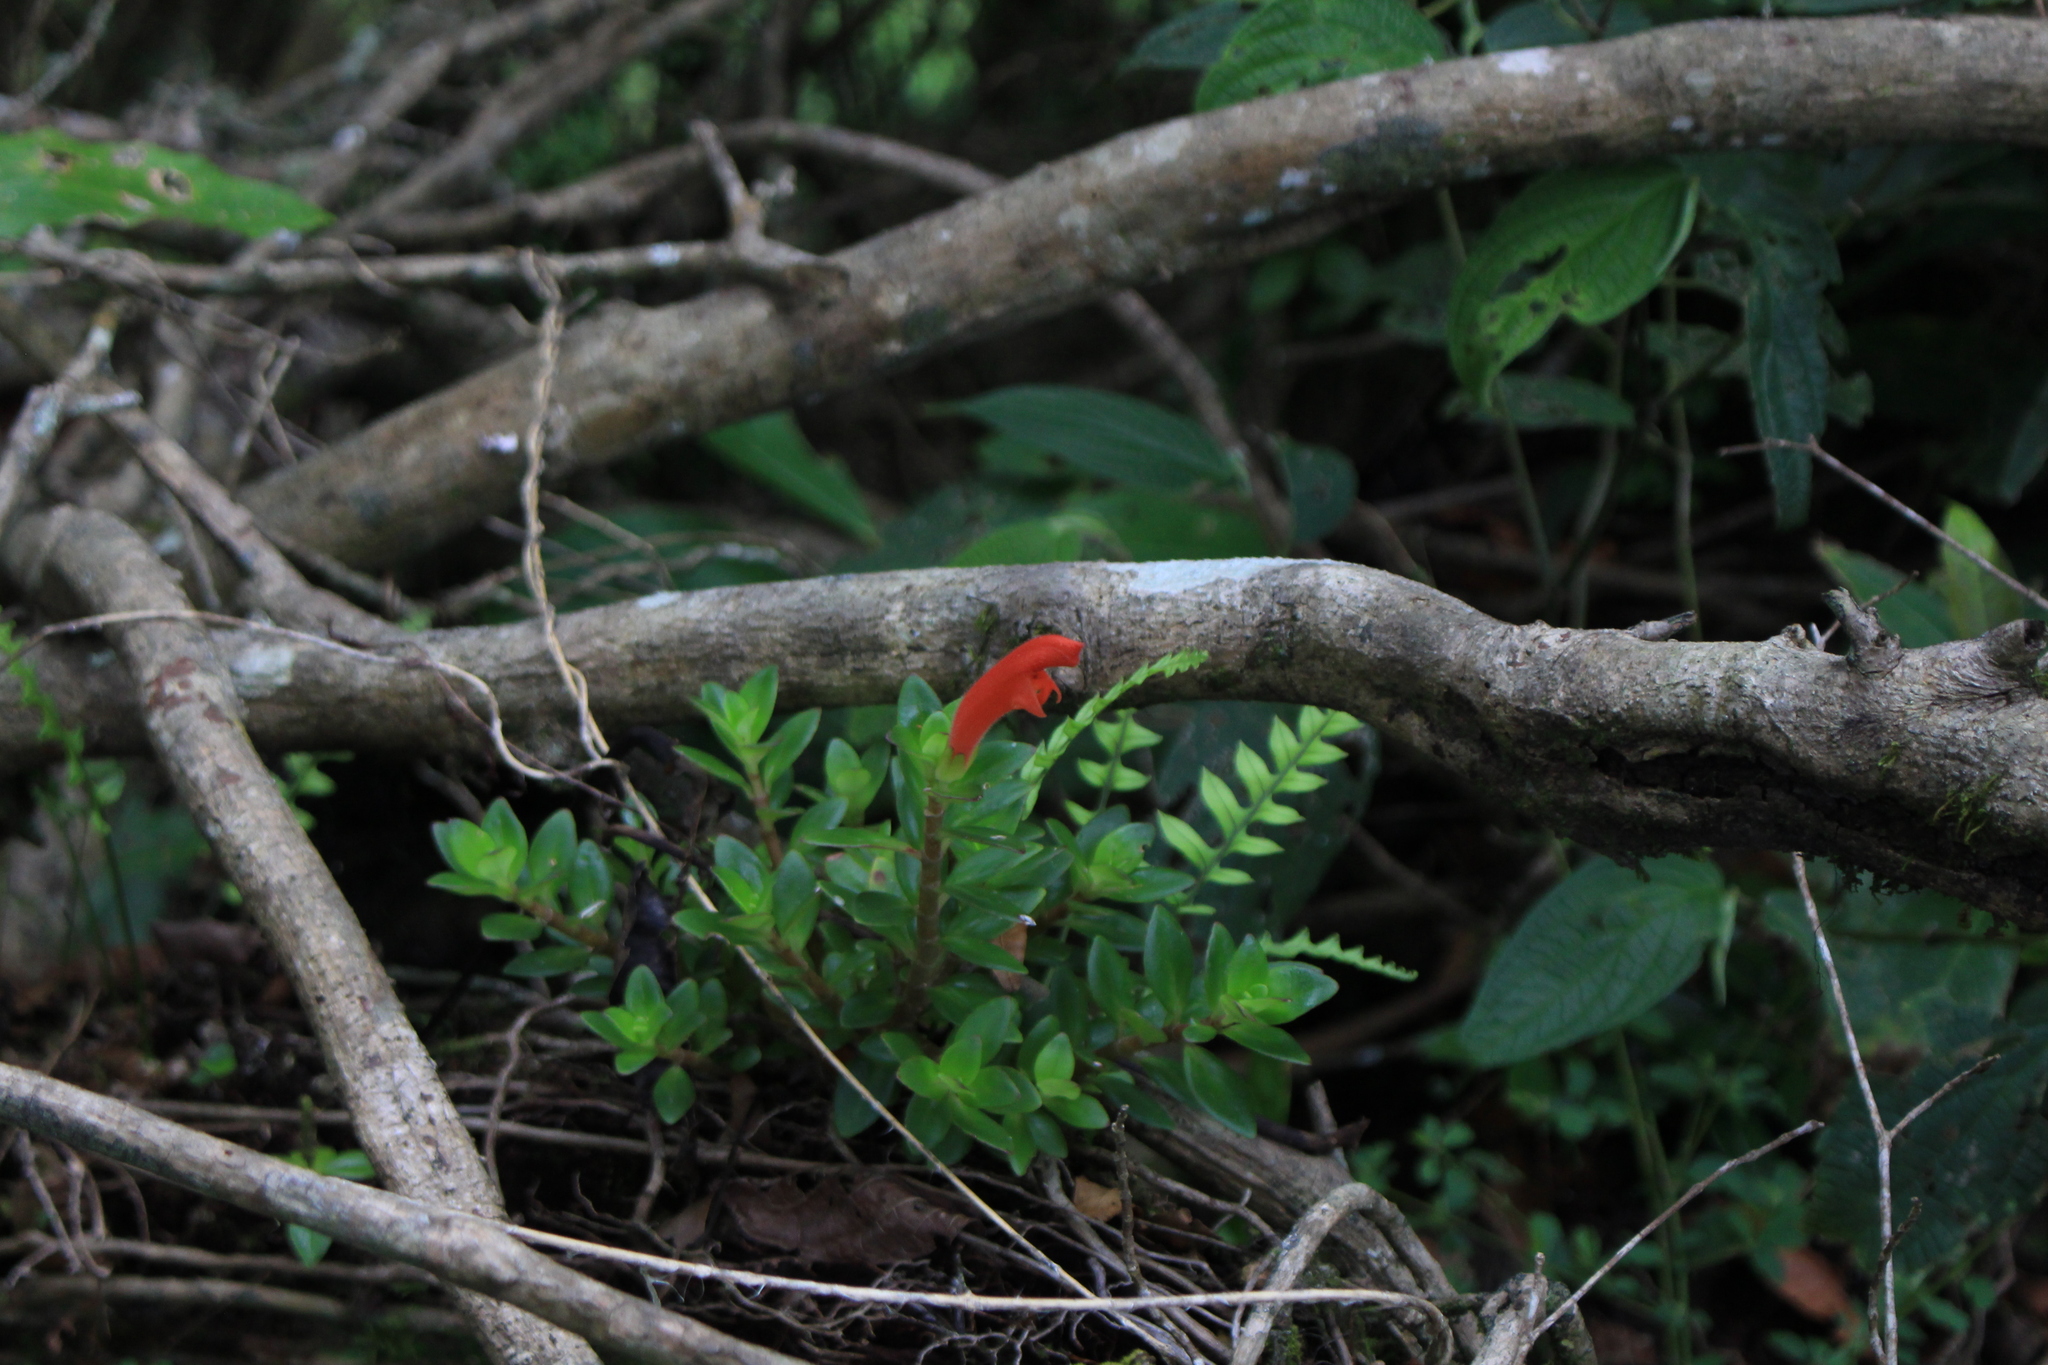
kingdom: Plantae
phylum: Tracheophyta
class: Magnoliopsida
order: Lamiales
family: Gesneriaceae
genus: Columnea
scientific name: Columnea glabra
